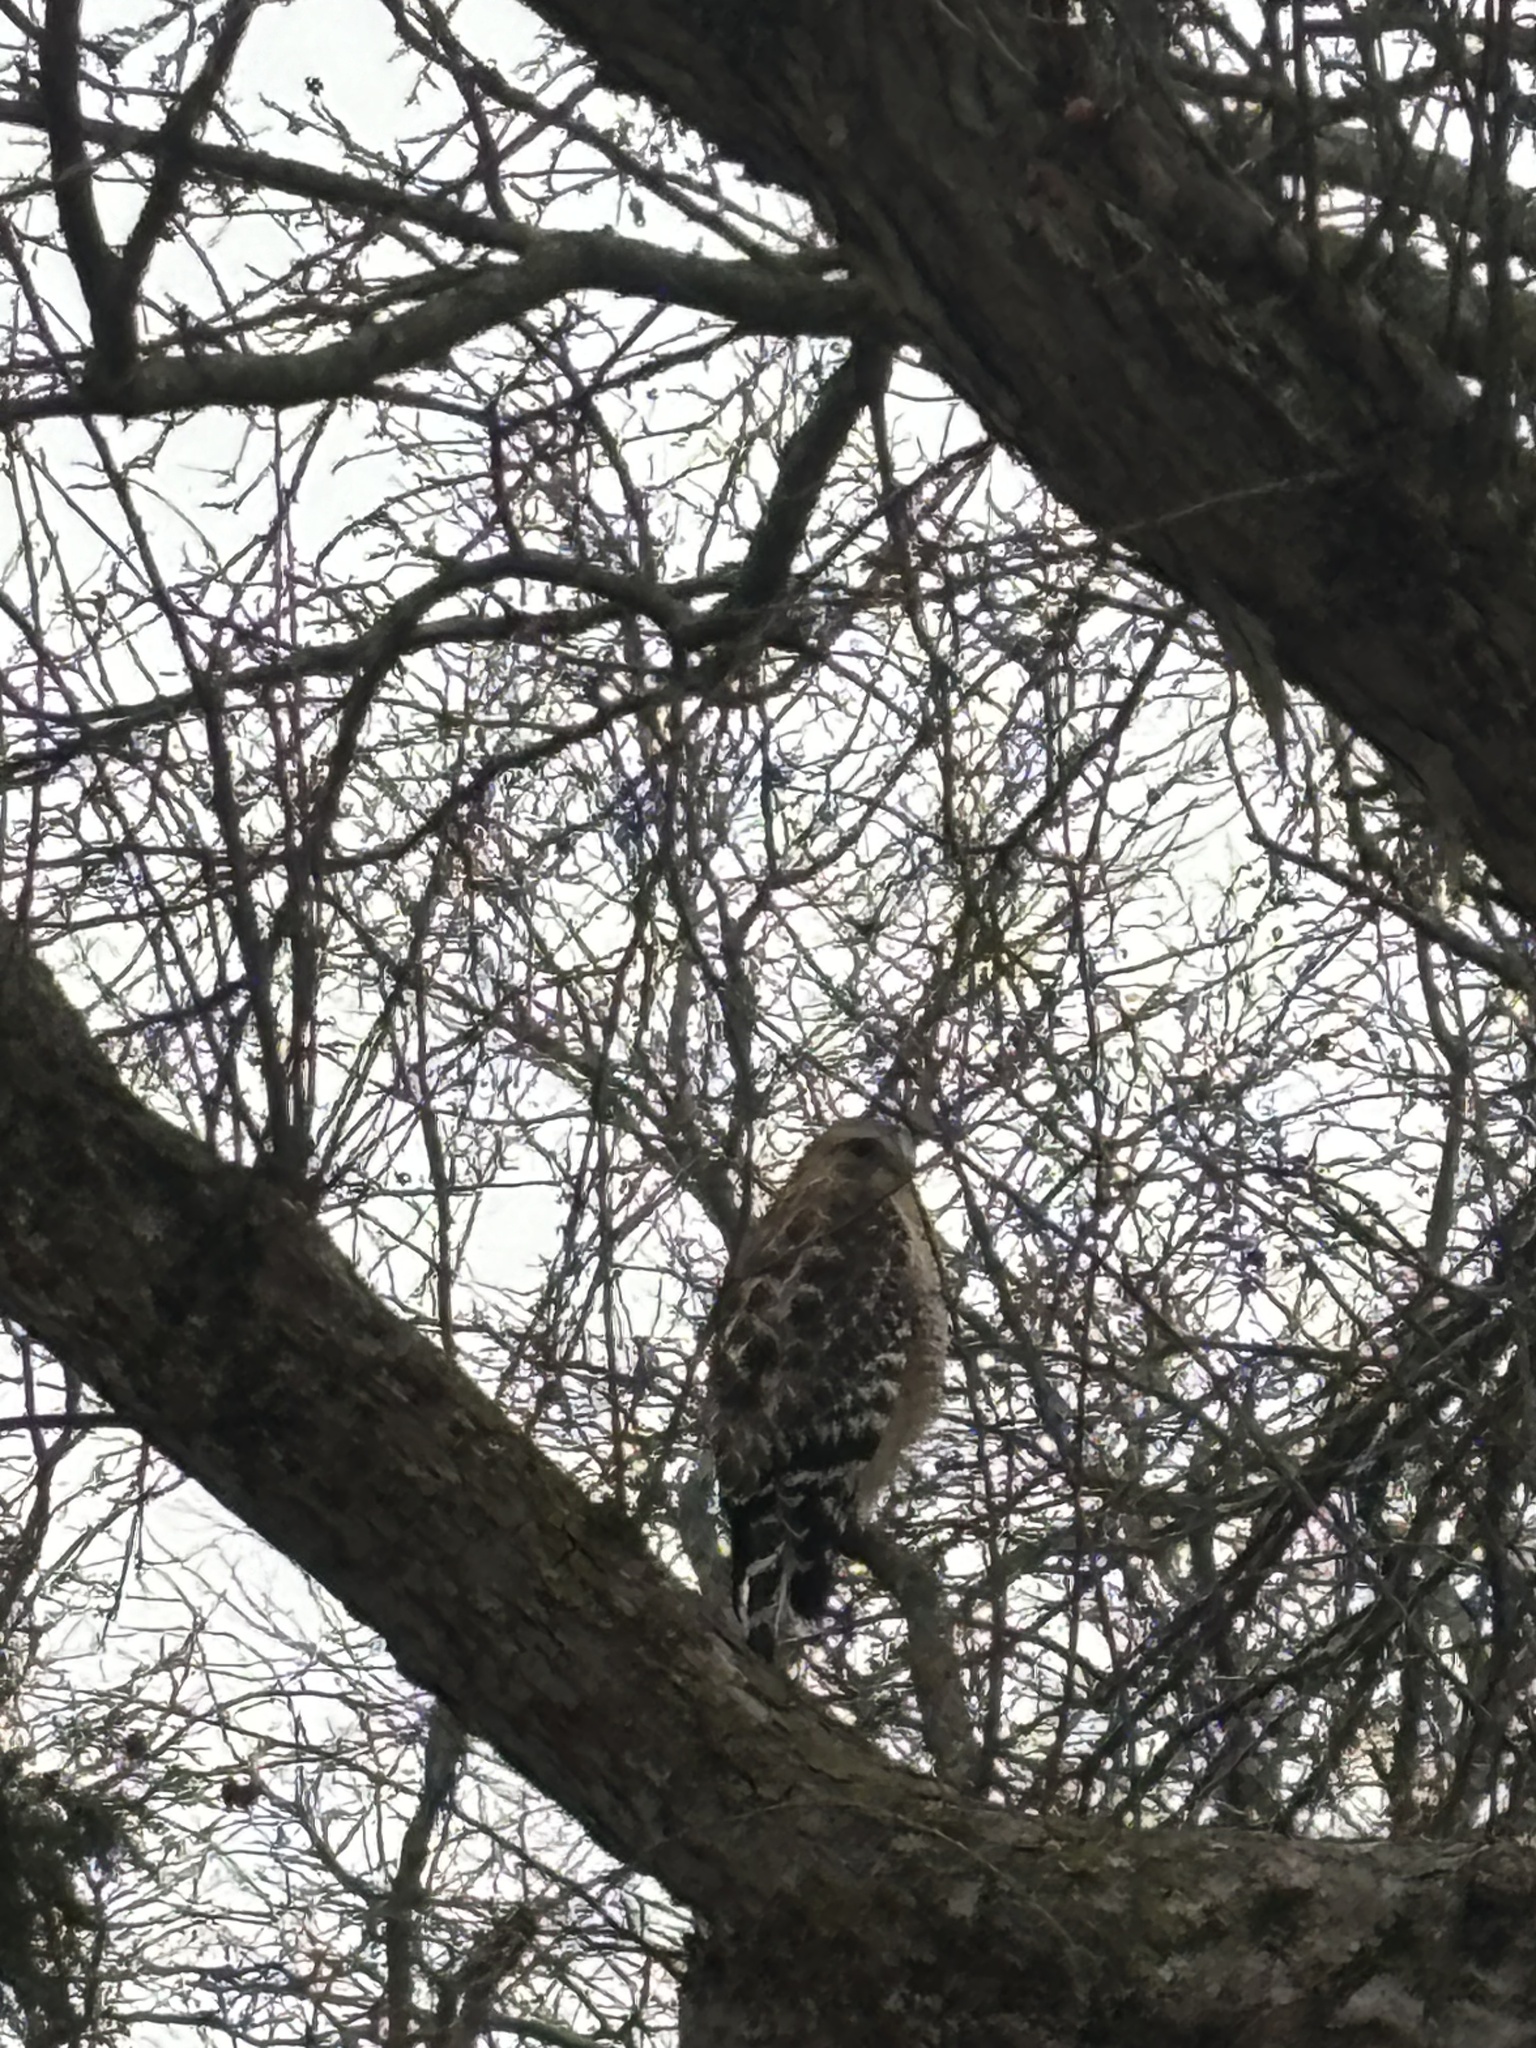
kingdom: Animalia
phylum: Chordata
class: Aves
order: Accipitriformes
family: Accipitridae
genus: Buteo
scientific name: Buteo lineatus
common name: Red-shouldered hawk
